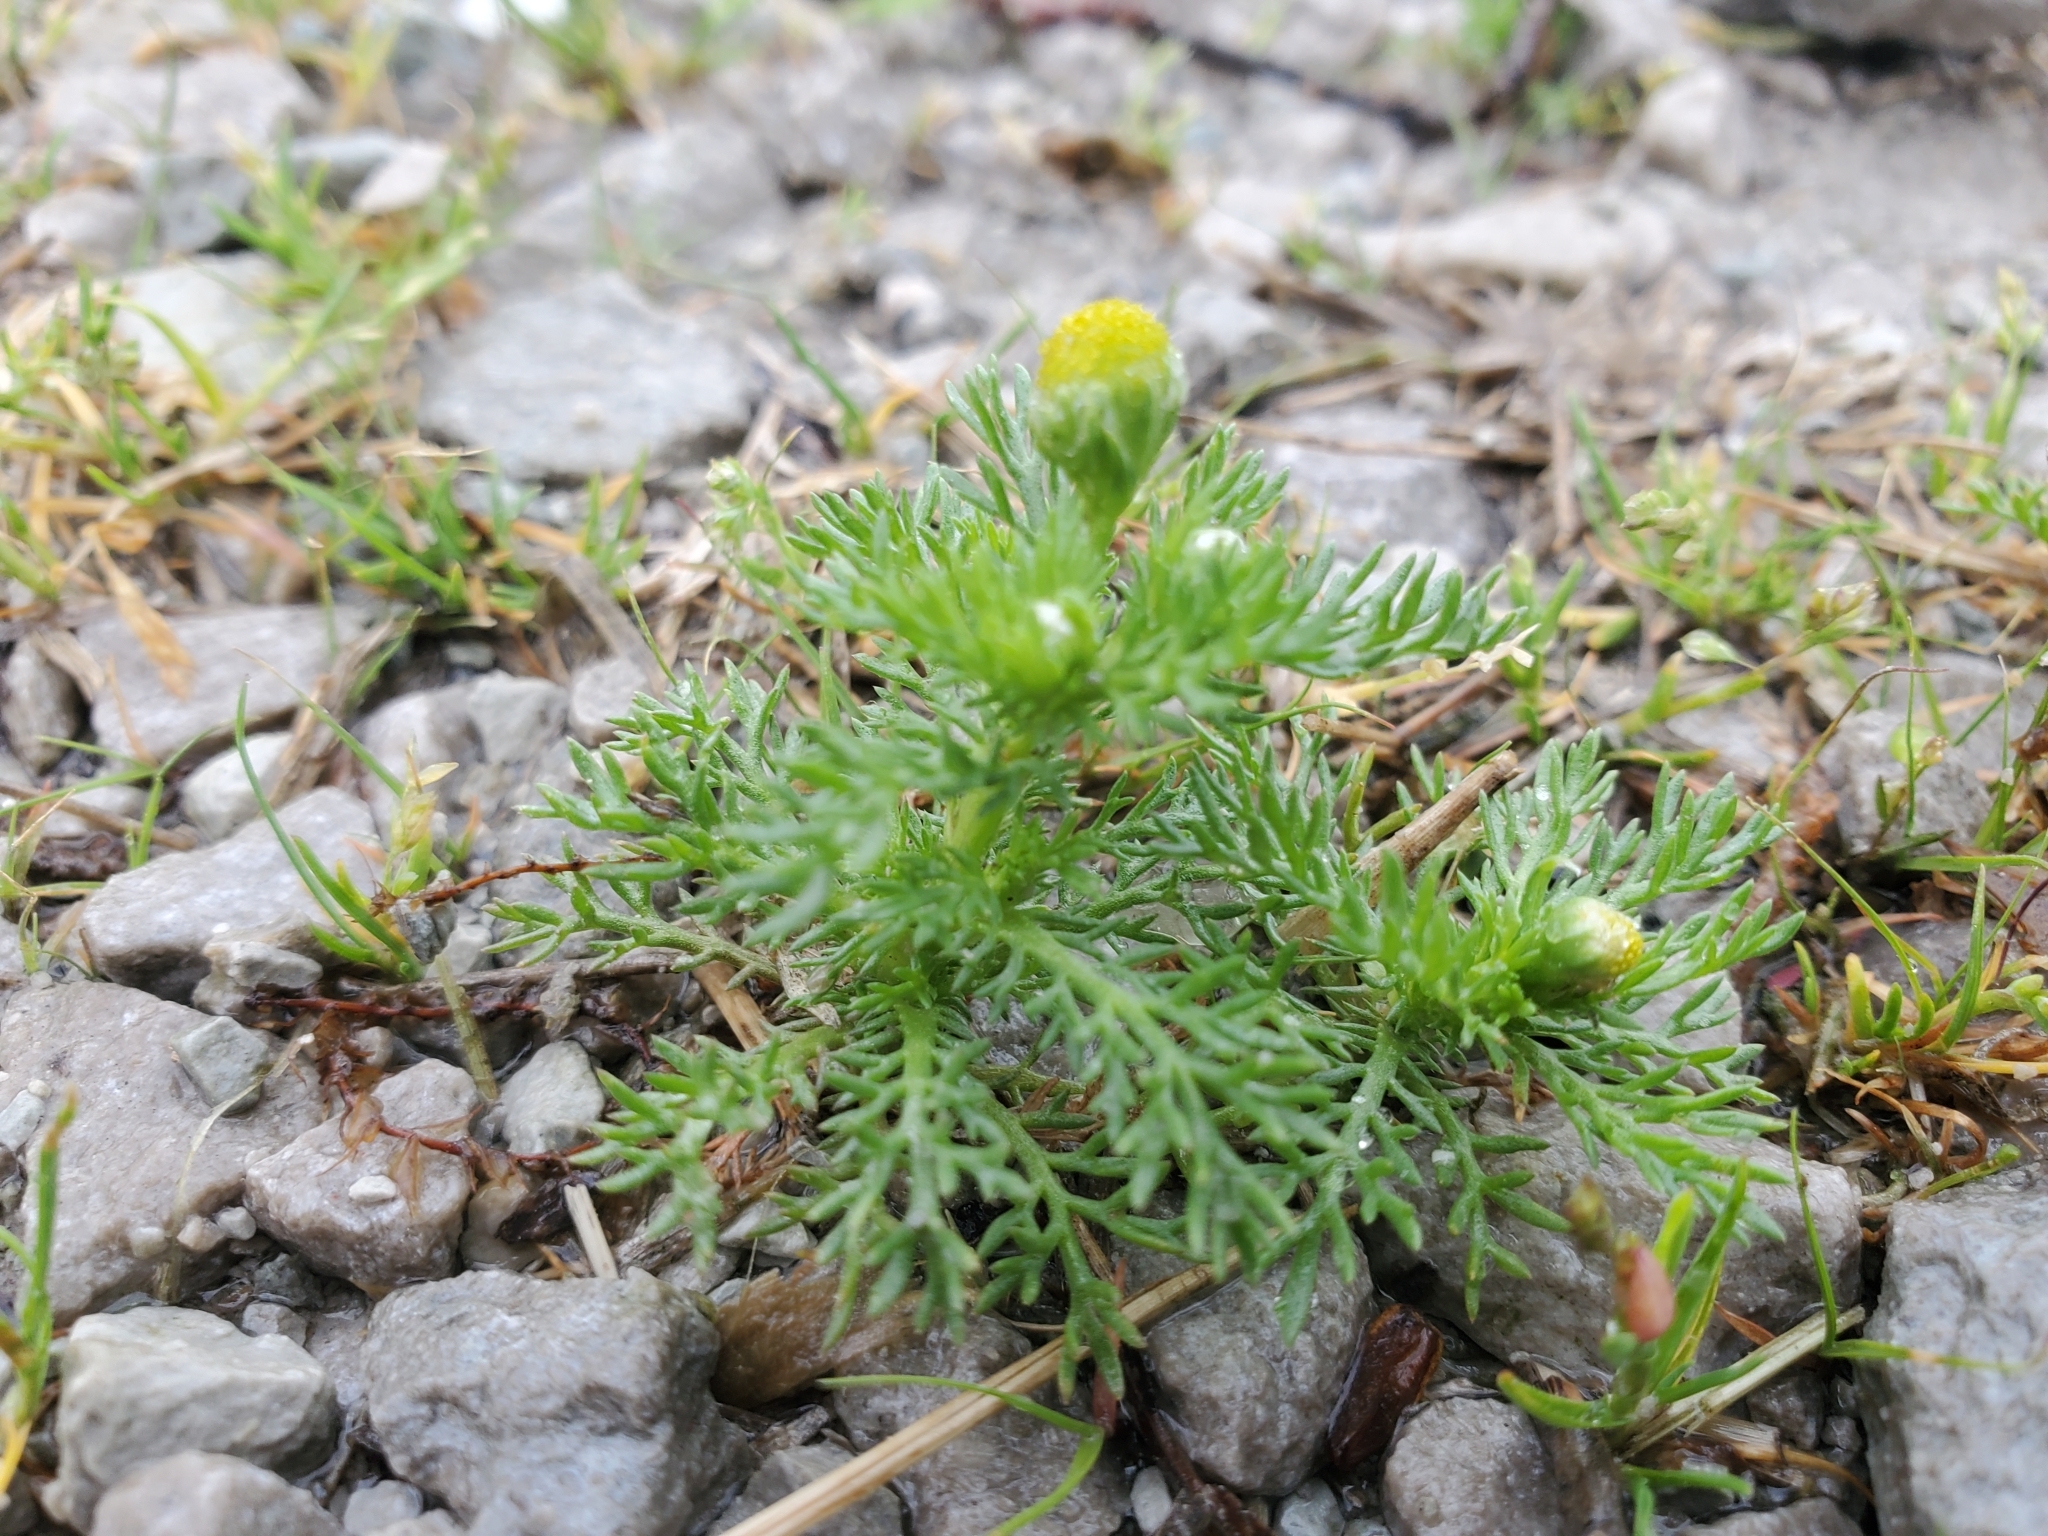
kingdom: Plantae
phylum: Tracheophyta
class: Magnoliopsida
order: Asterales
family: Asteraceae
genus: Matricaria
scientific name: Matricaria discoidea
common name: Disc mayweed
